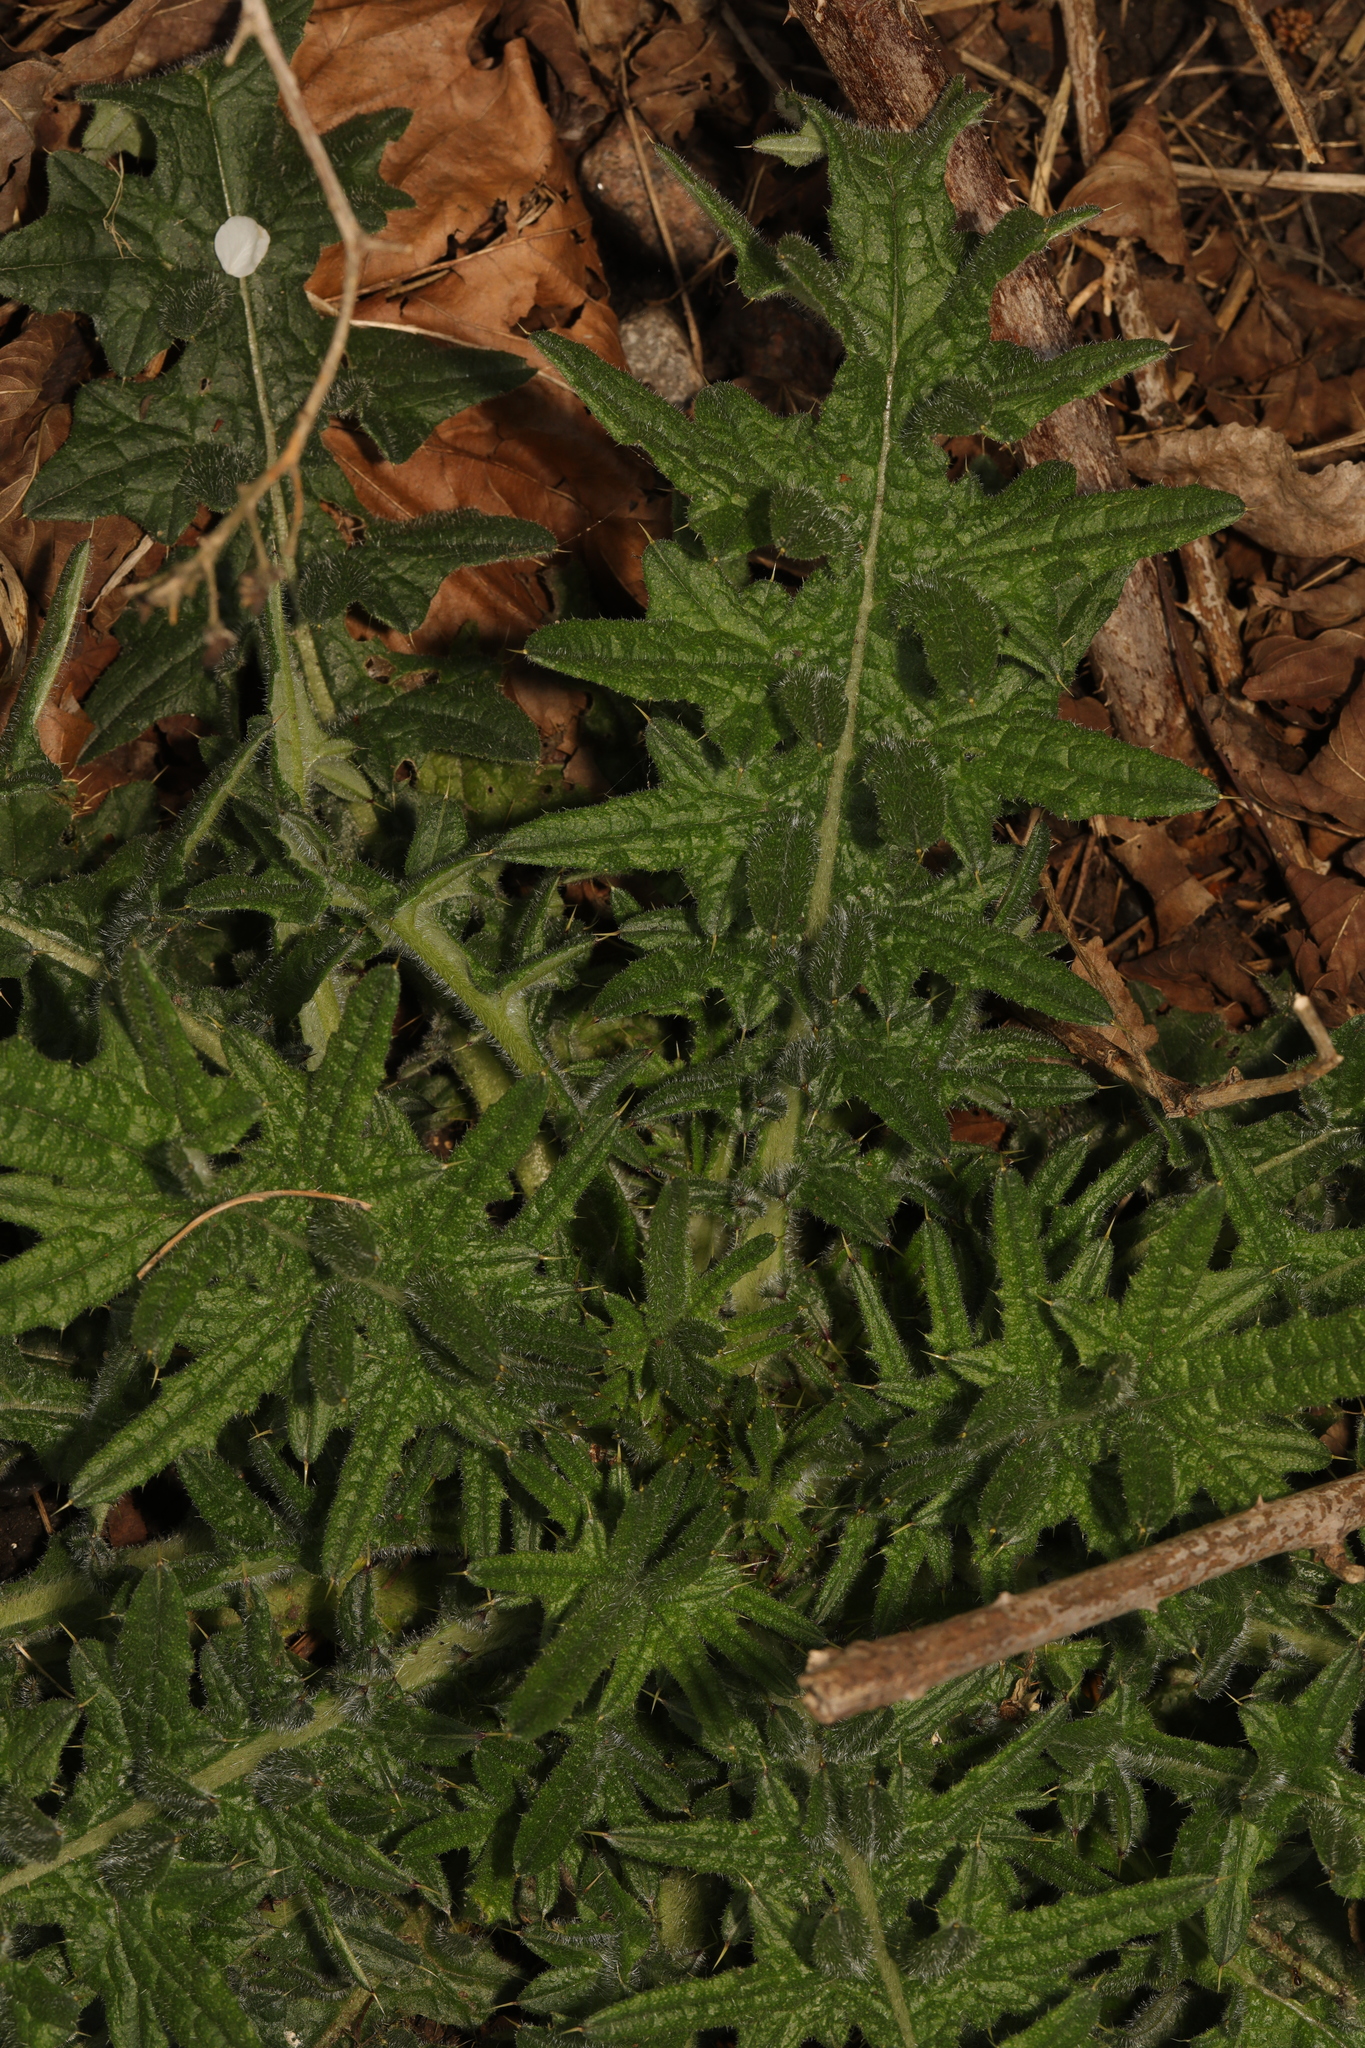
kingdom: Plantae
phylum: Tracheophyta
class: Magnoliopsida
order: Asterales
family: Asteraceae
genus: Cirsium
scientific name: Cirsium vulgare
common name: Bull thistle
